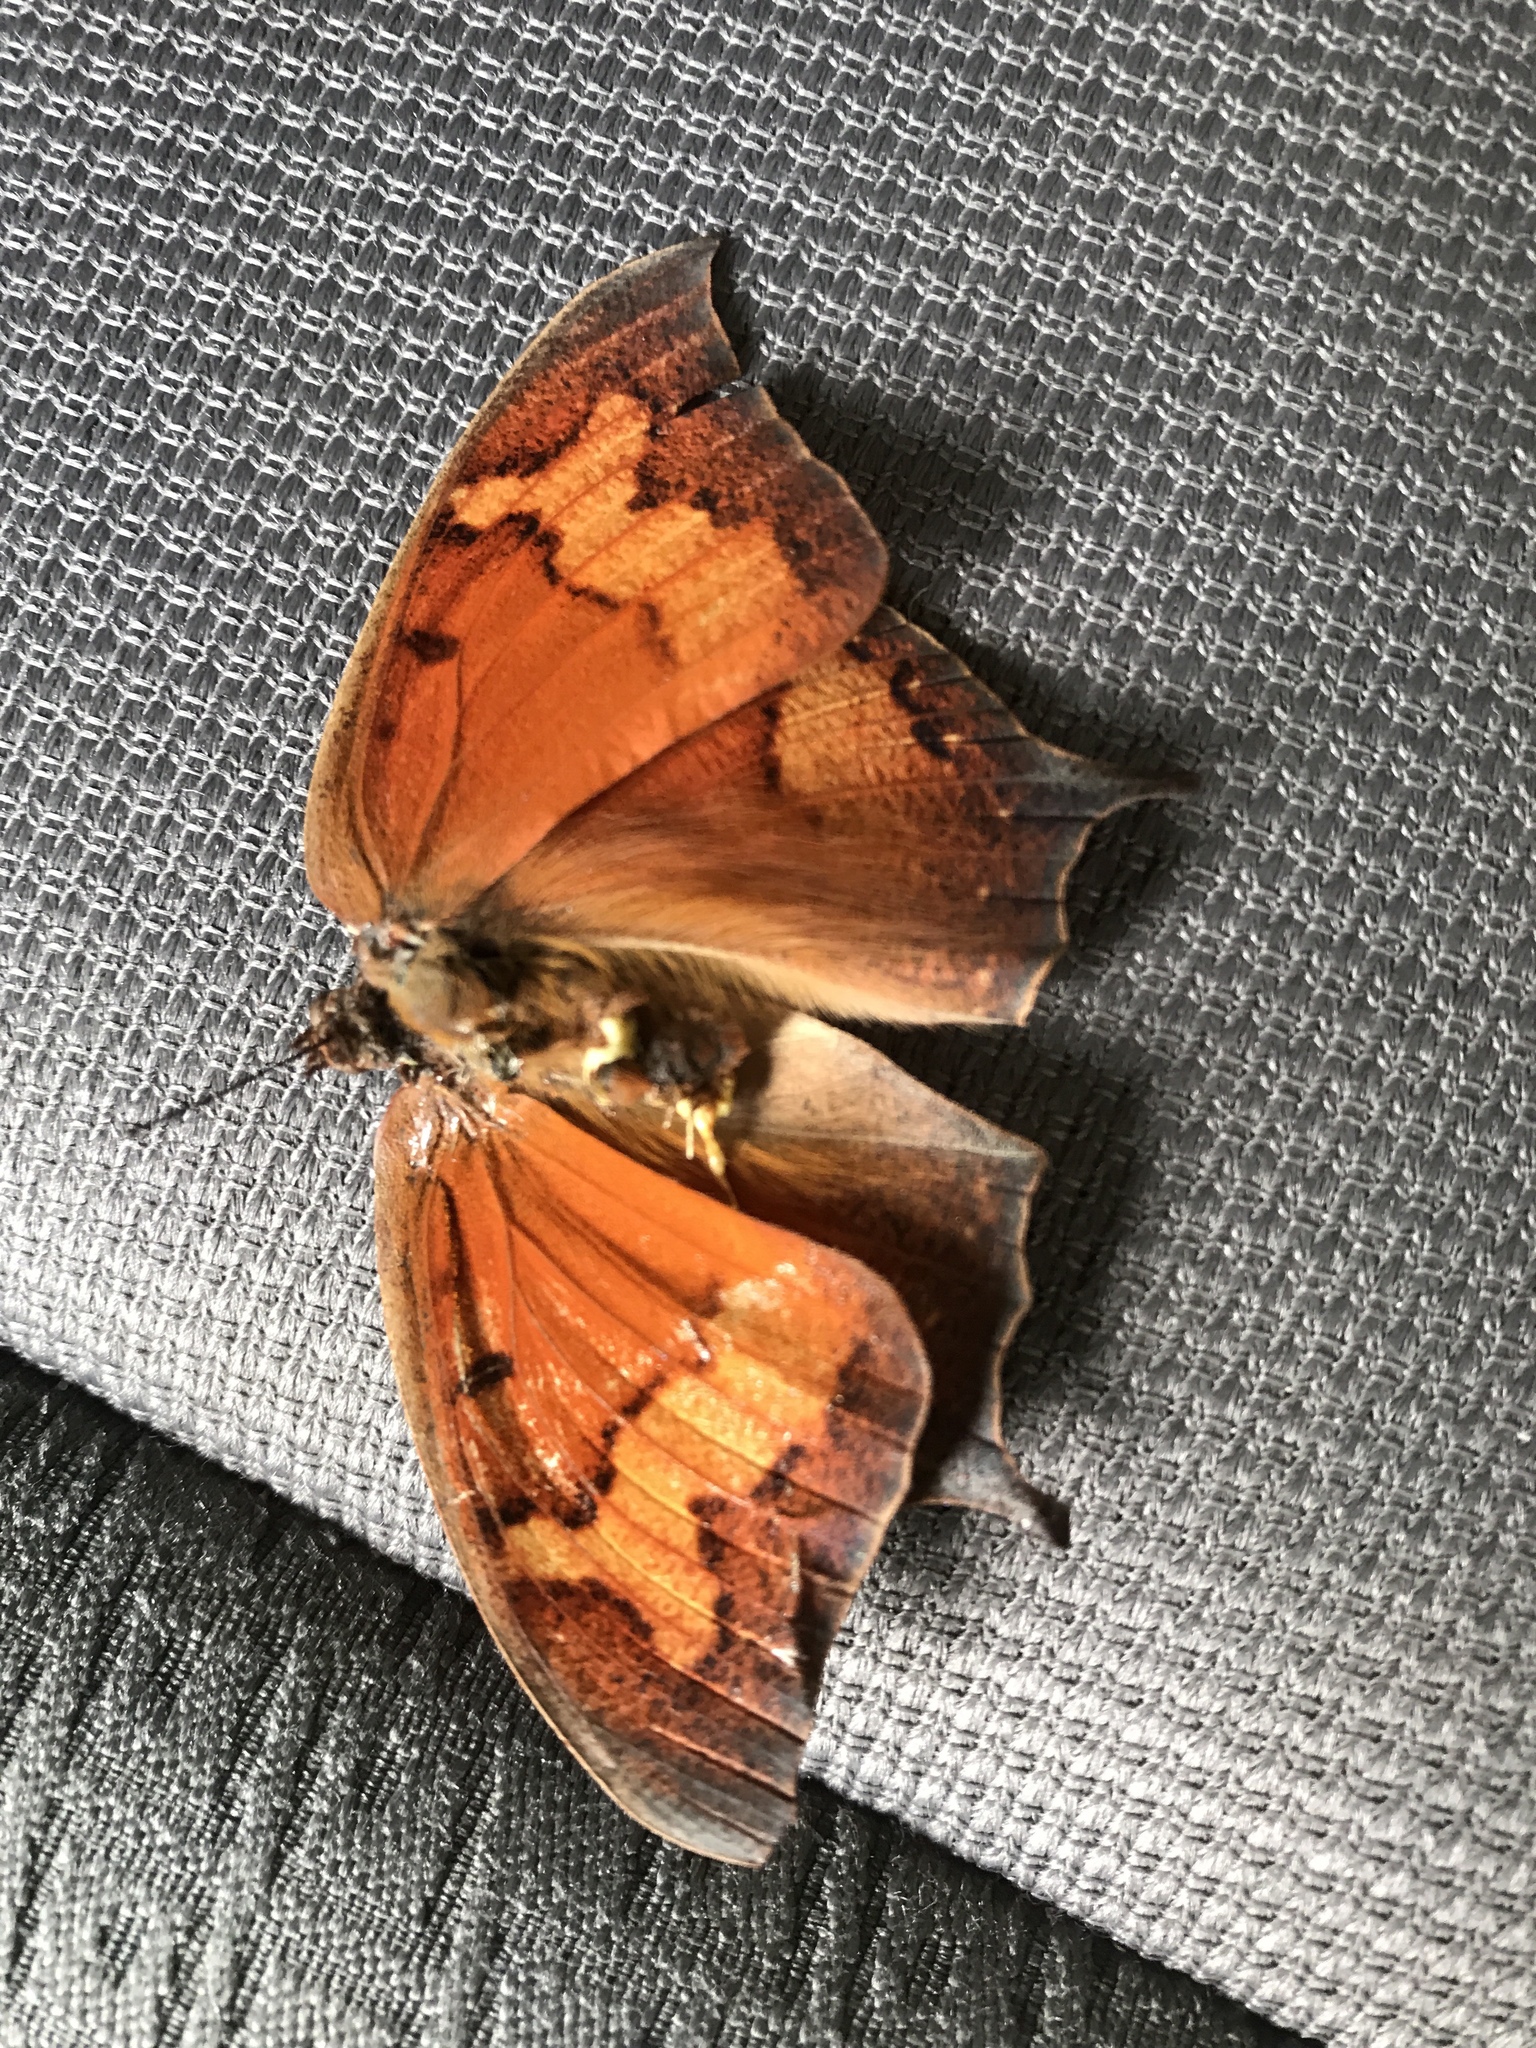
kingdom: Animalia
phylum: Arthropoda
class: Insecta
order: Lepidoptera
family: Nymphalidae
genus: Anaea
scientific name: Anaea andria
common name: Goatweed leafwing
